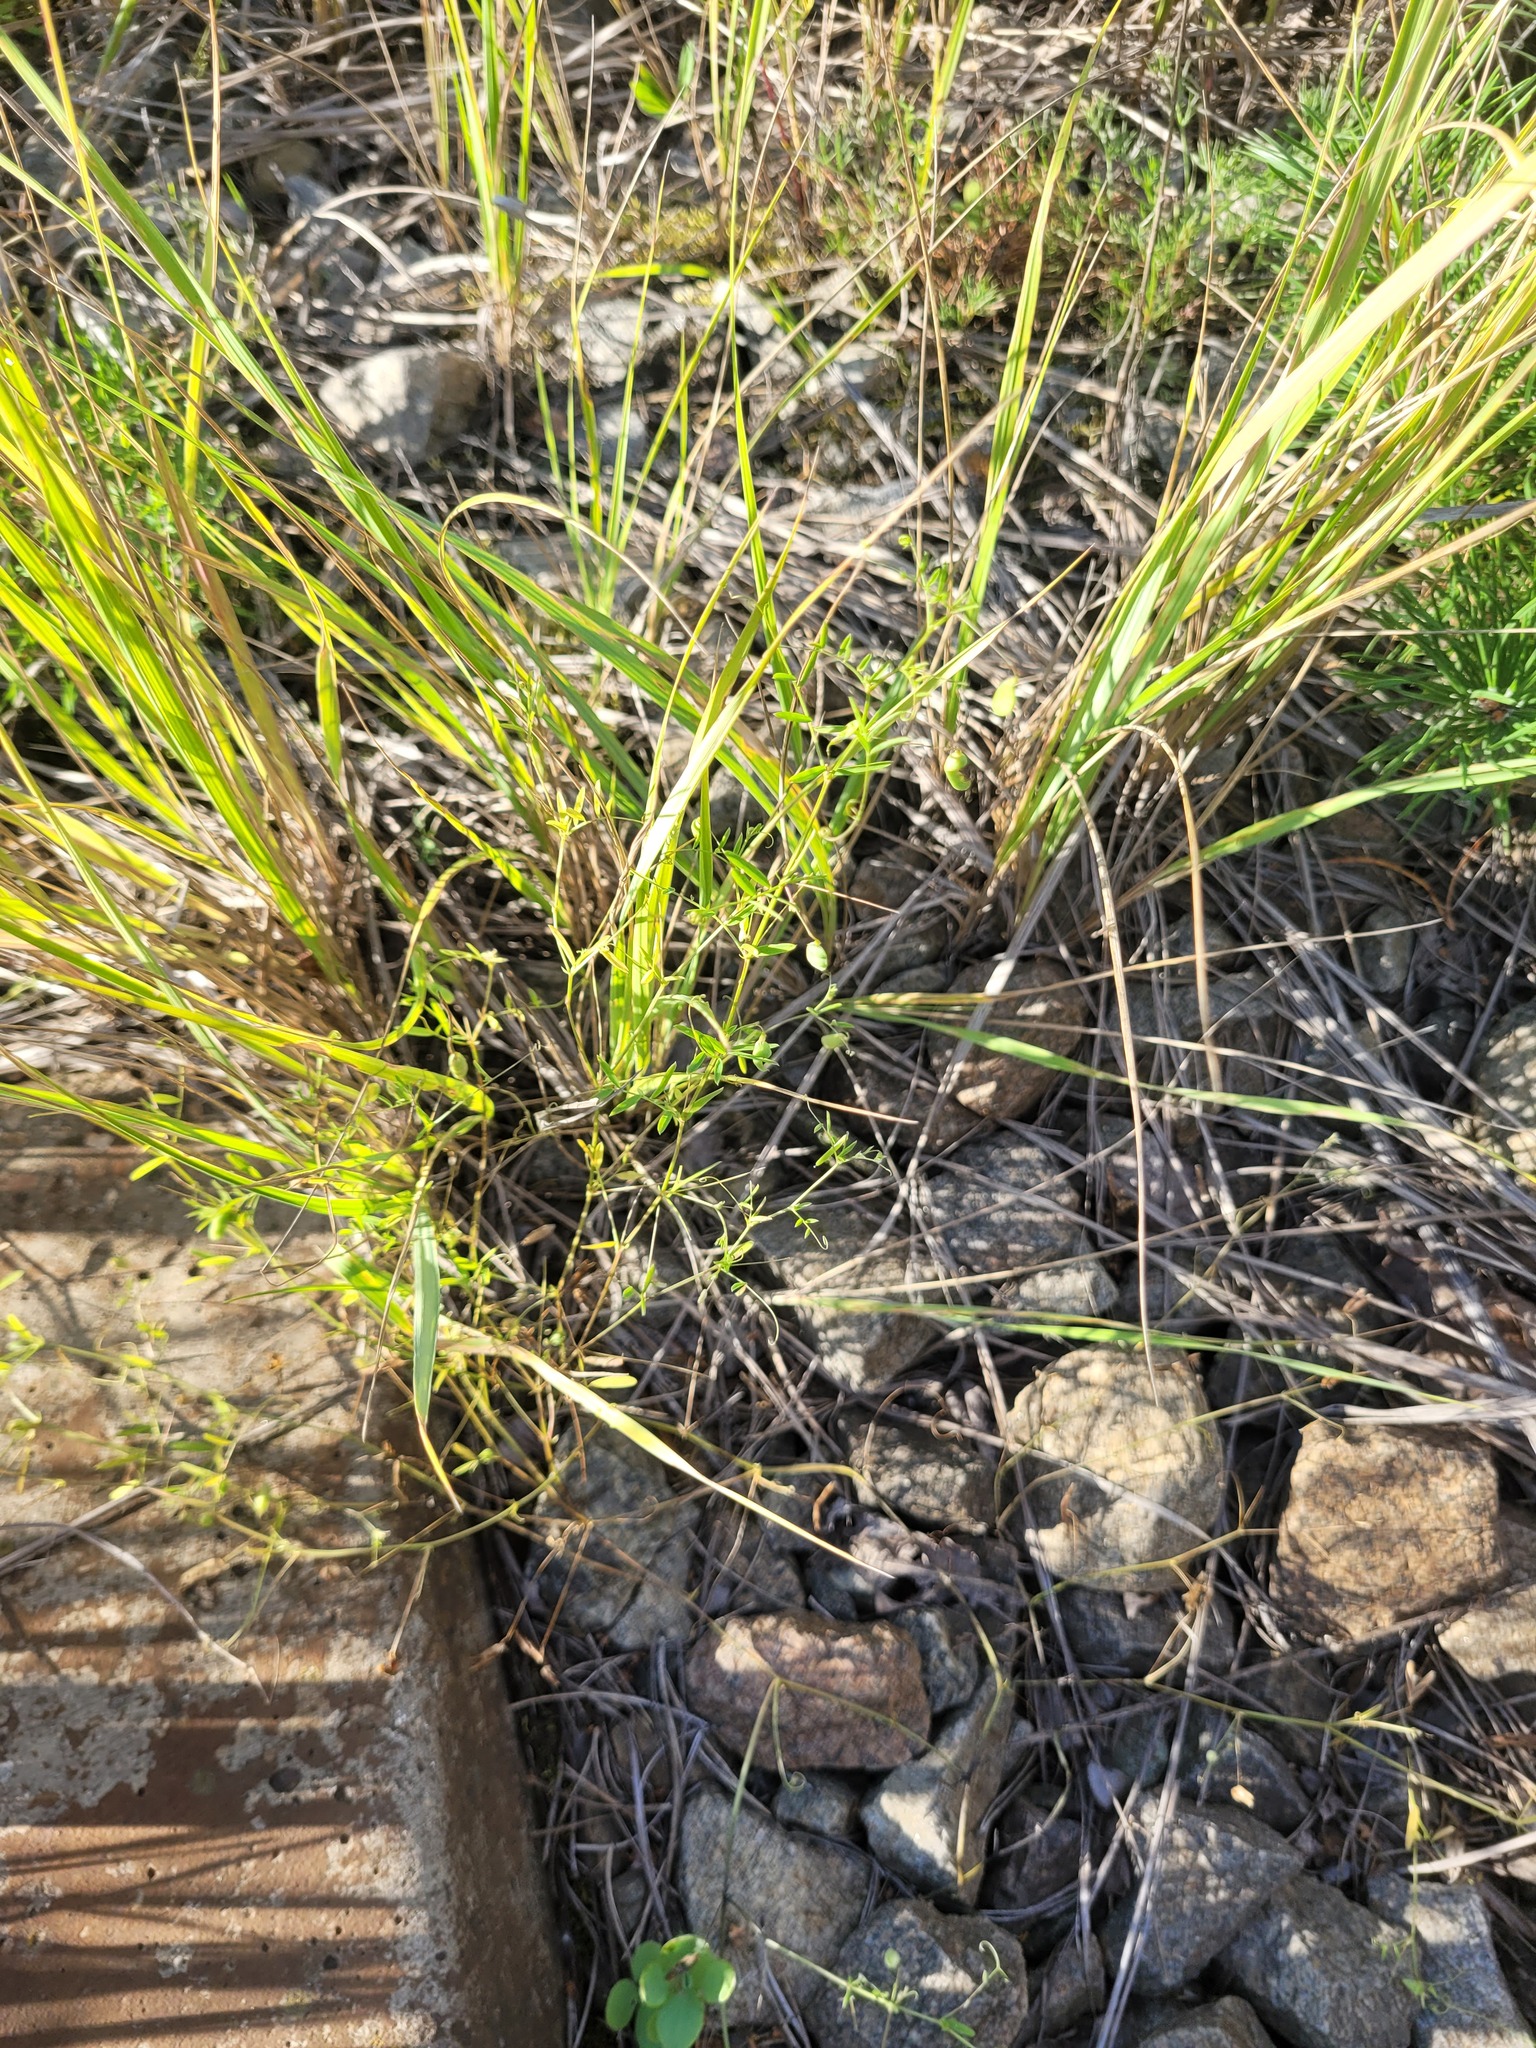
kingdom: Plantae
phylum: Tracheophyta
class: Magnoliopsida
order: Fabales
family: Fabaceae
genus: Vicia
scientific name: Vicia tetrasperma
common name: Smooth tare
